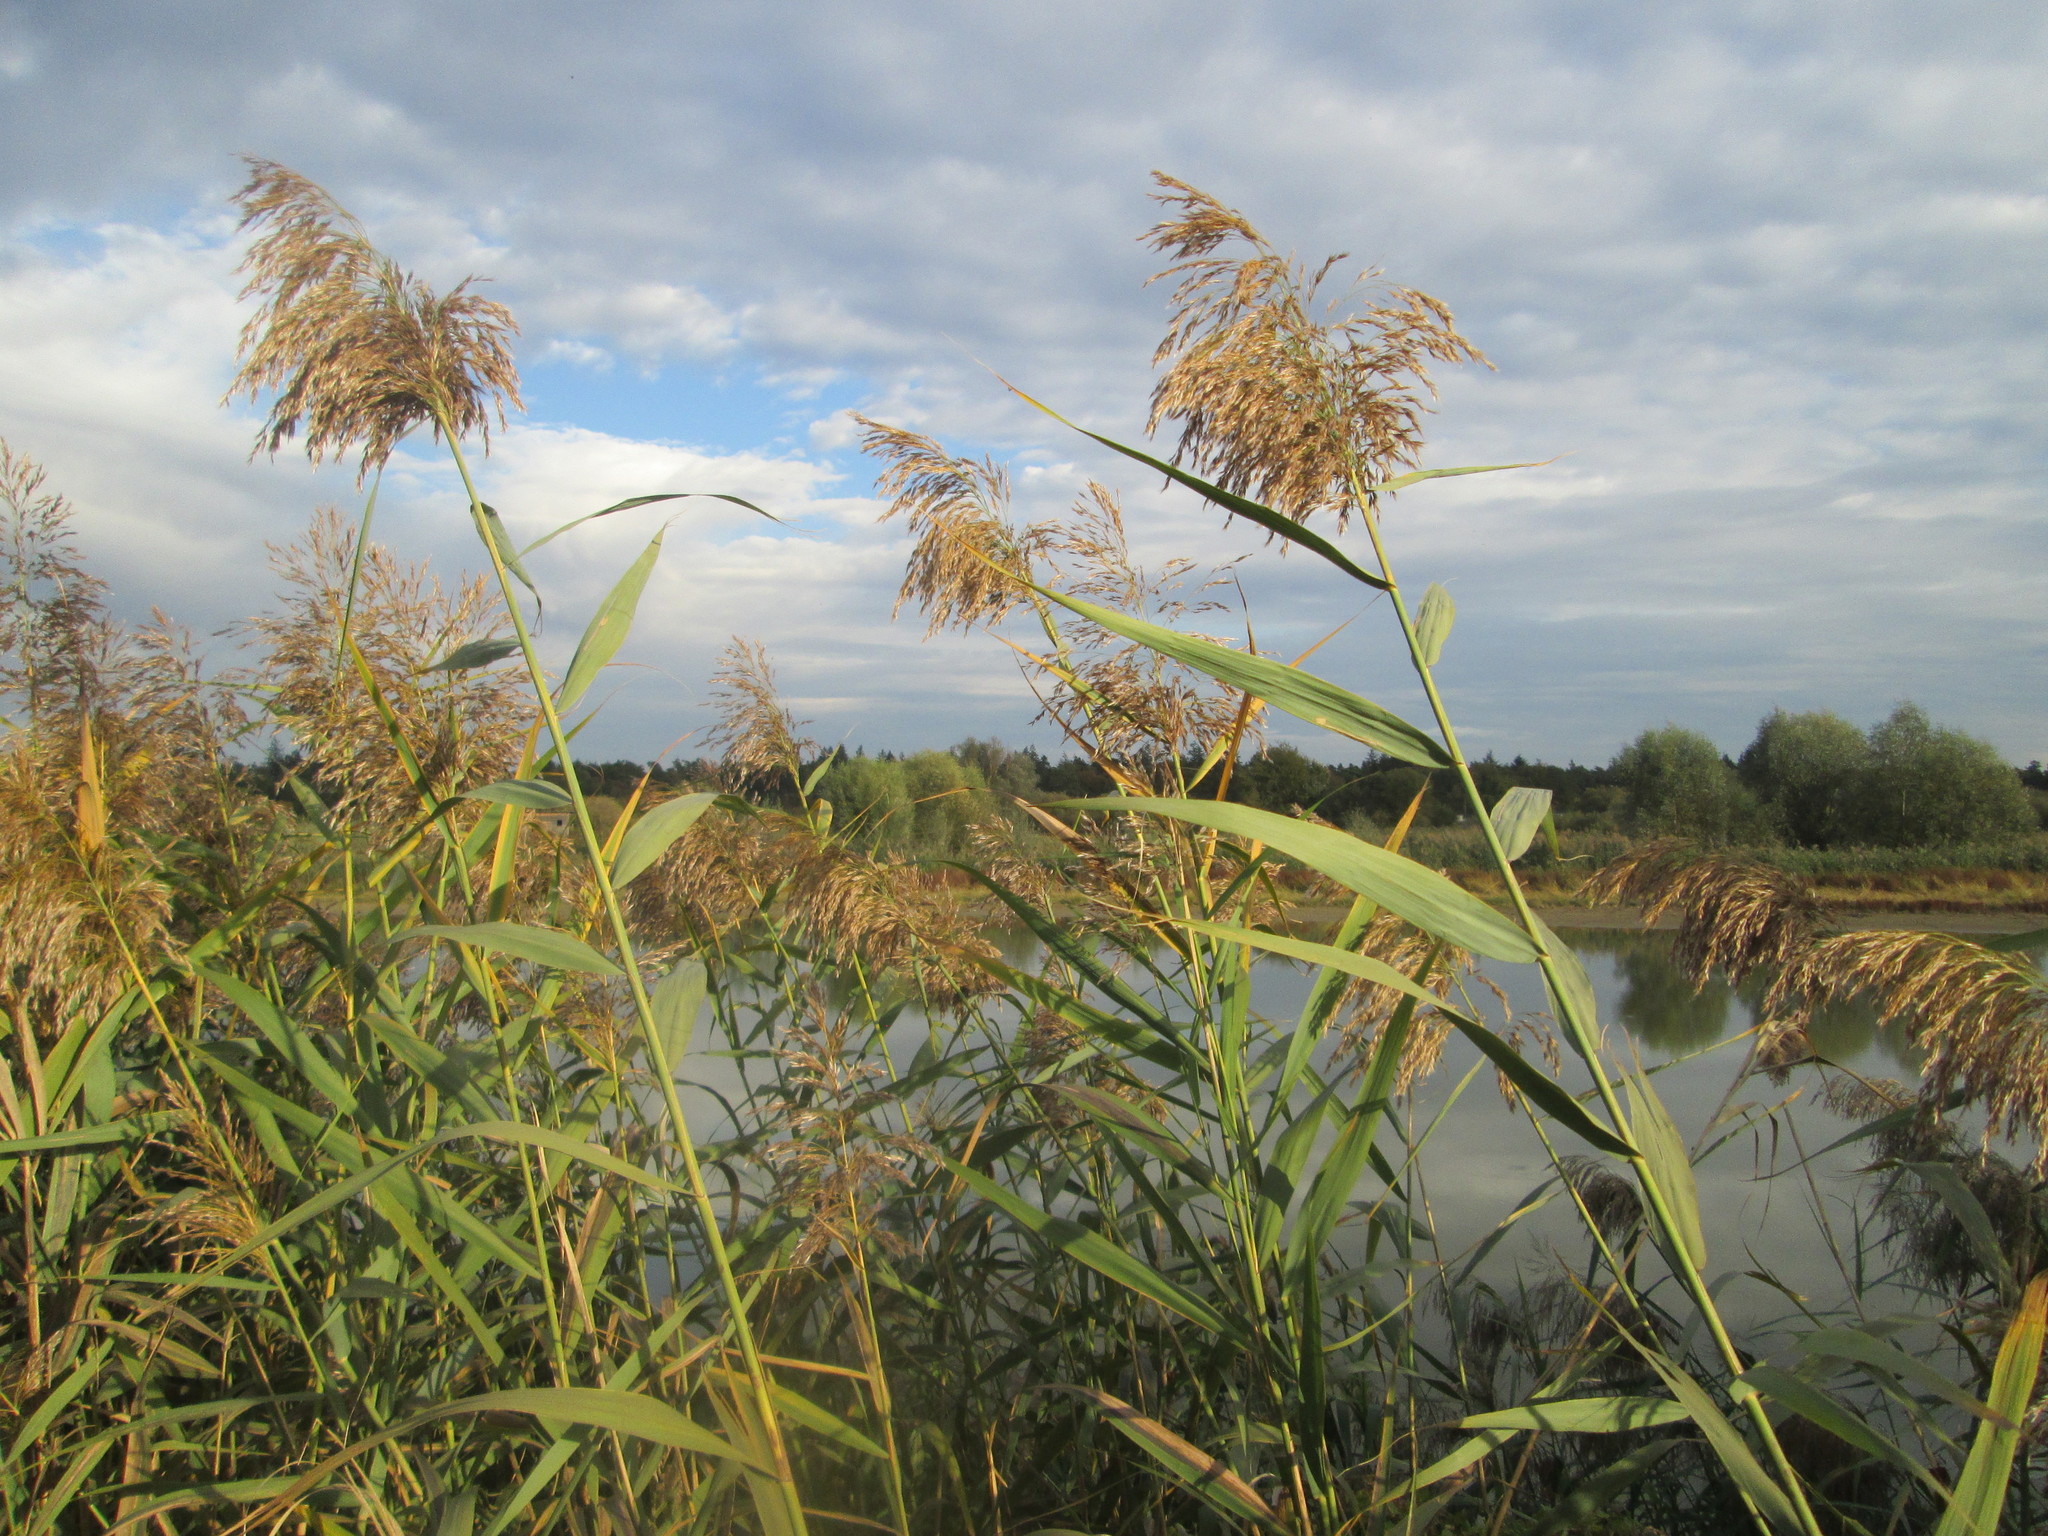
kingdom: Plantae
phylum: Tracheophyta
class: Liliopsida
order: Poales
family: Poaceae
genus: Phragmites
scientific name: Phragmites australis
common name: Common reed
